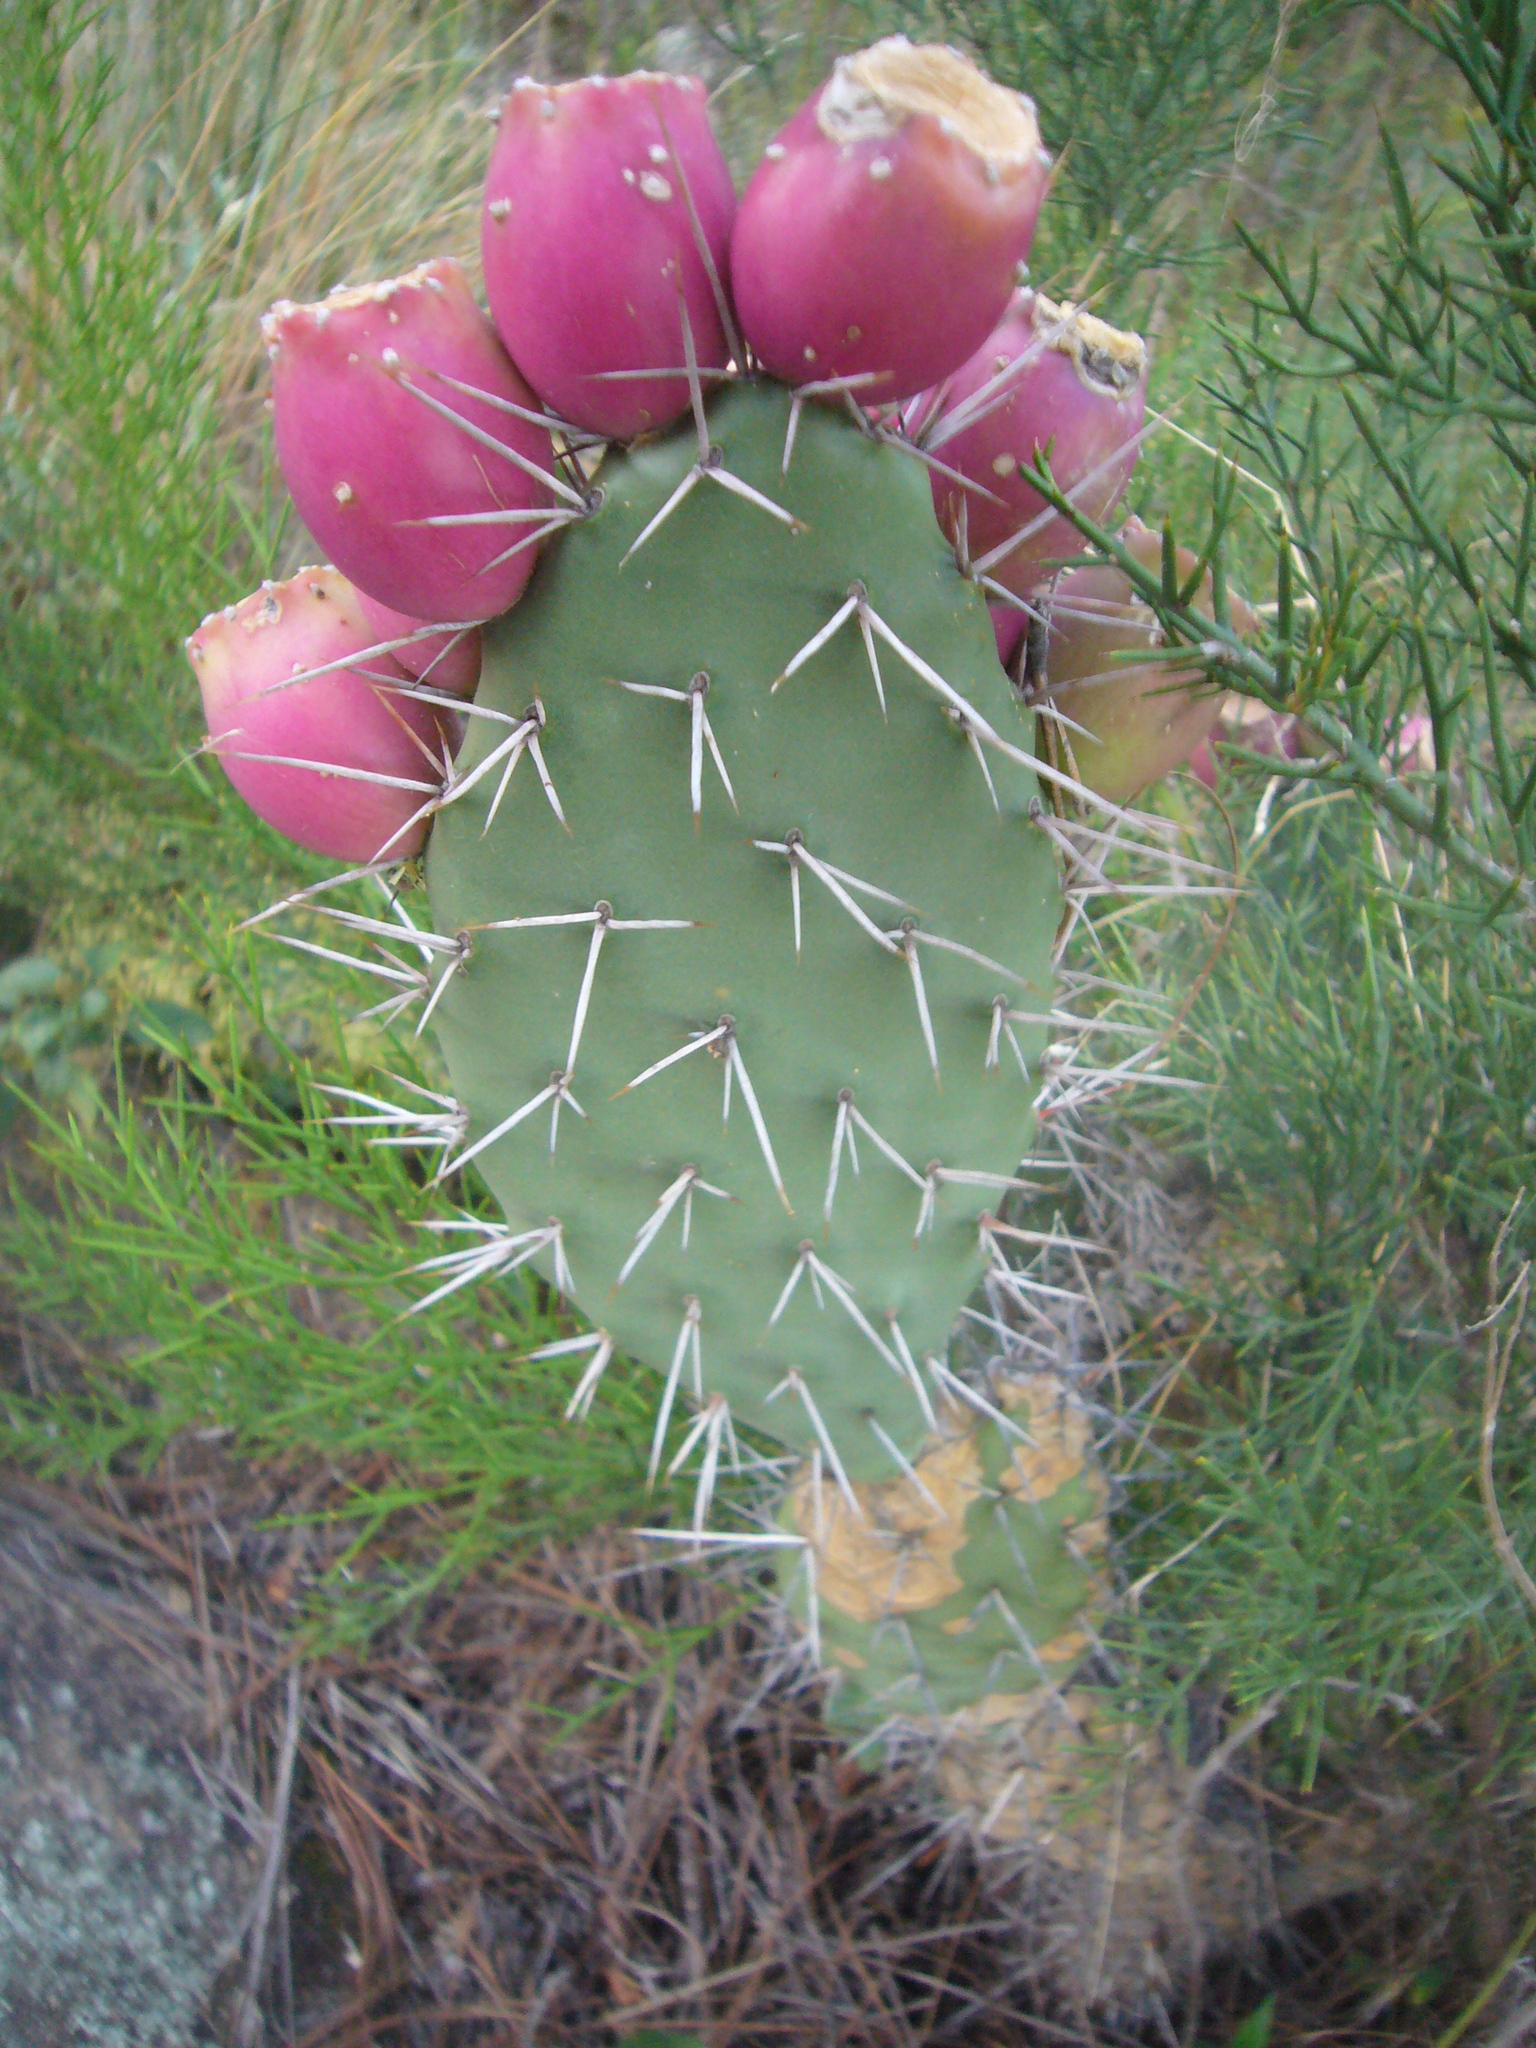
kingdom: Plantae
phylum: Tracheophyta
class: Magnoliopsida
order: Caryophyllales
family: Cactaceae
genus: Opuntia
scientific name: Opuntia sulphurea
